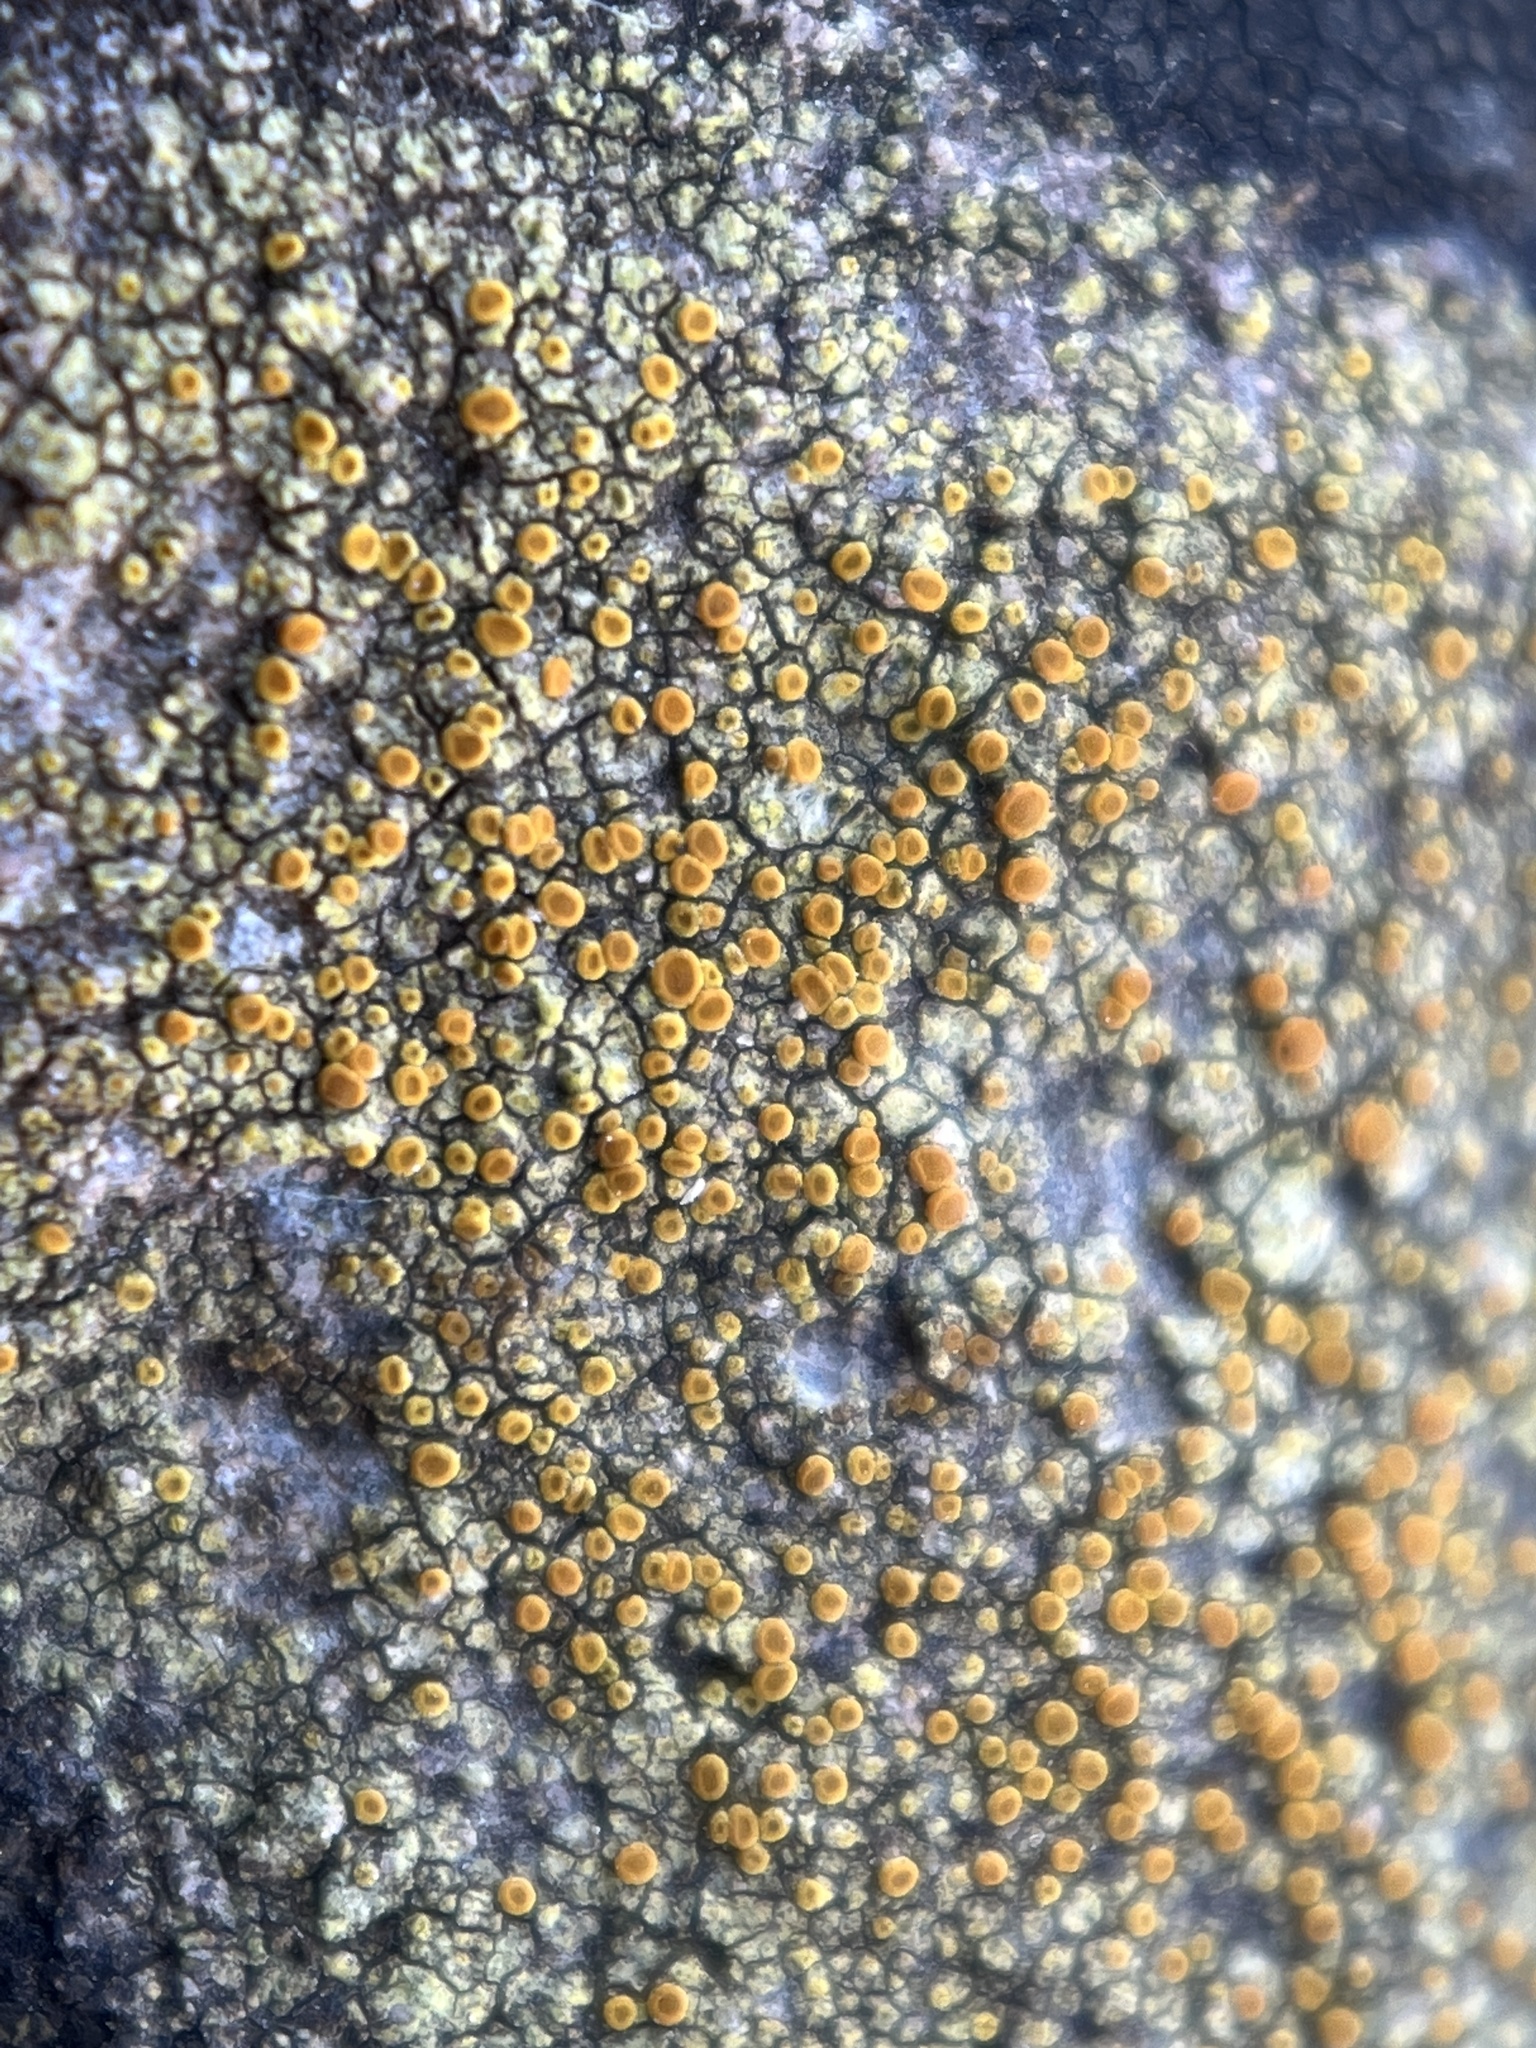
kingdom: Fungi
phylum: Ascomycota
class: Lecanoromycetes
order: Teloschistales
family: Teloschistaceae
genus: Gyalolechia
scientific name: Gyalolechia flavovirescens
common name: Sulphur firedot
